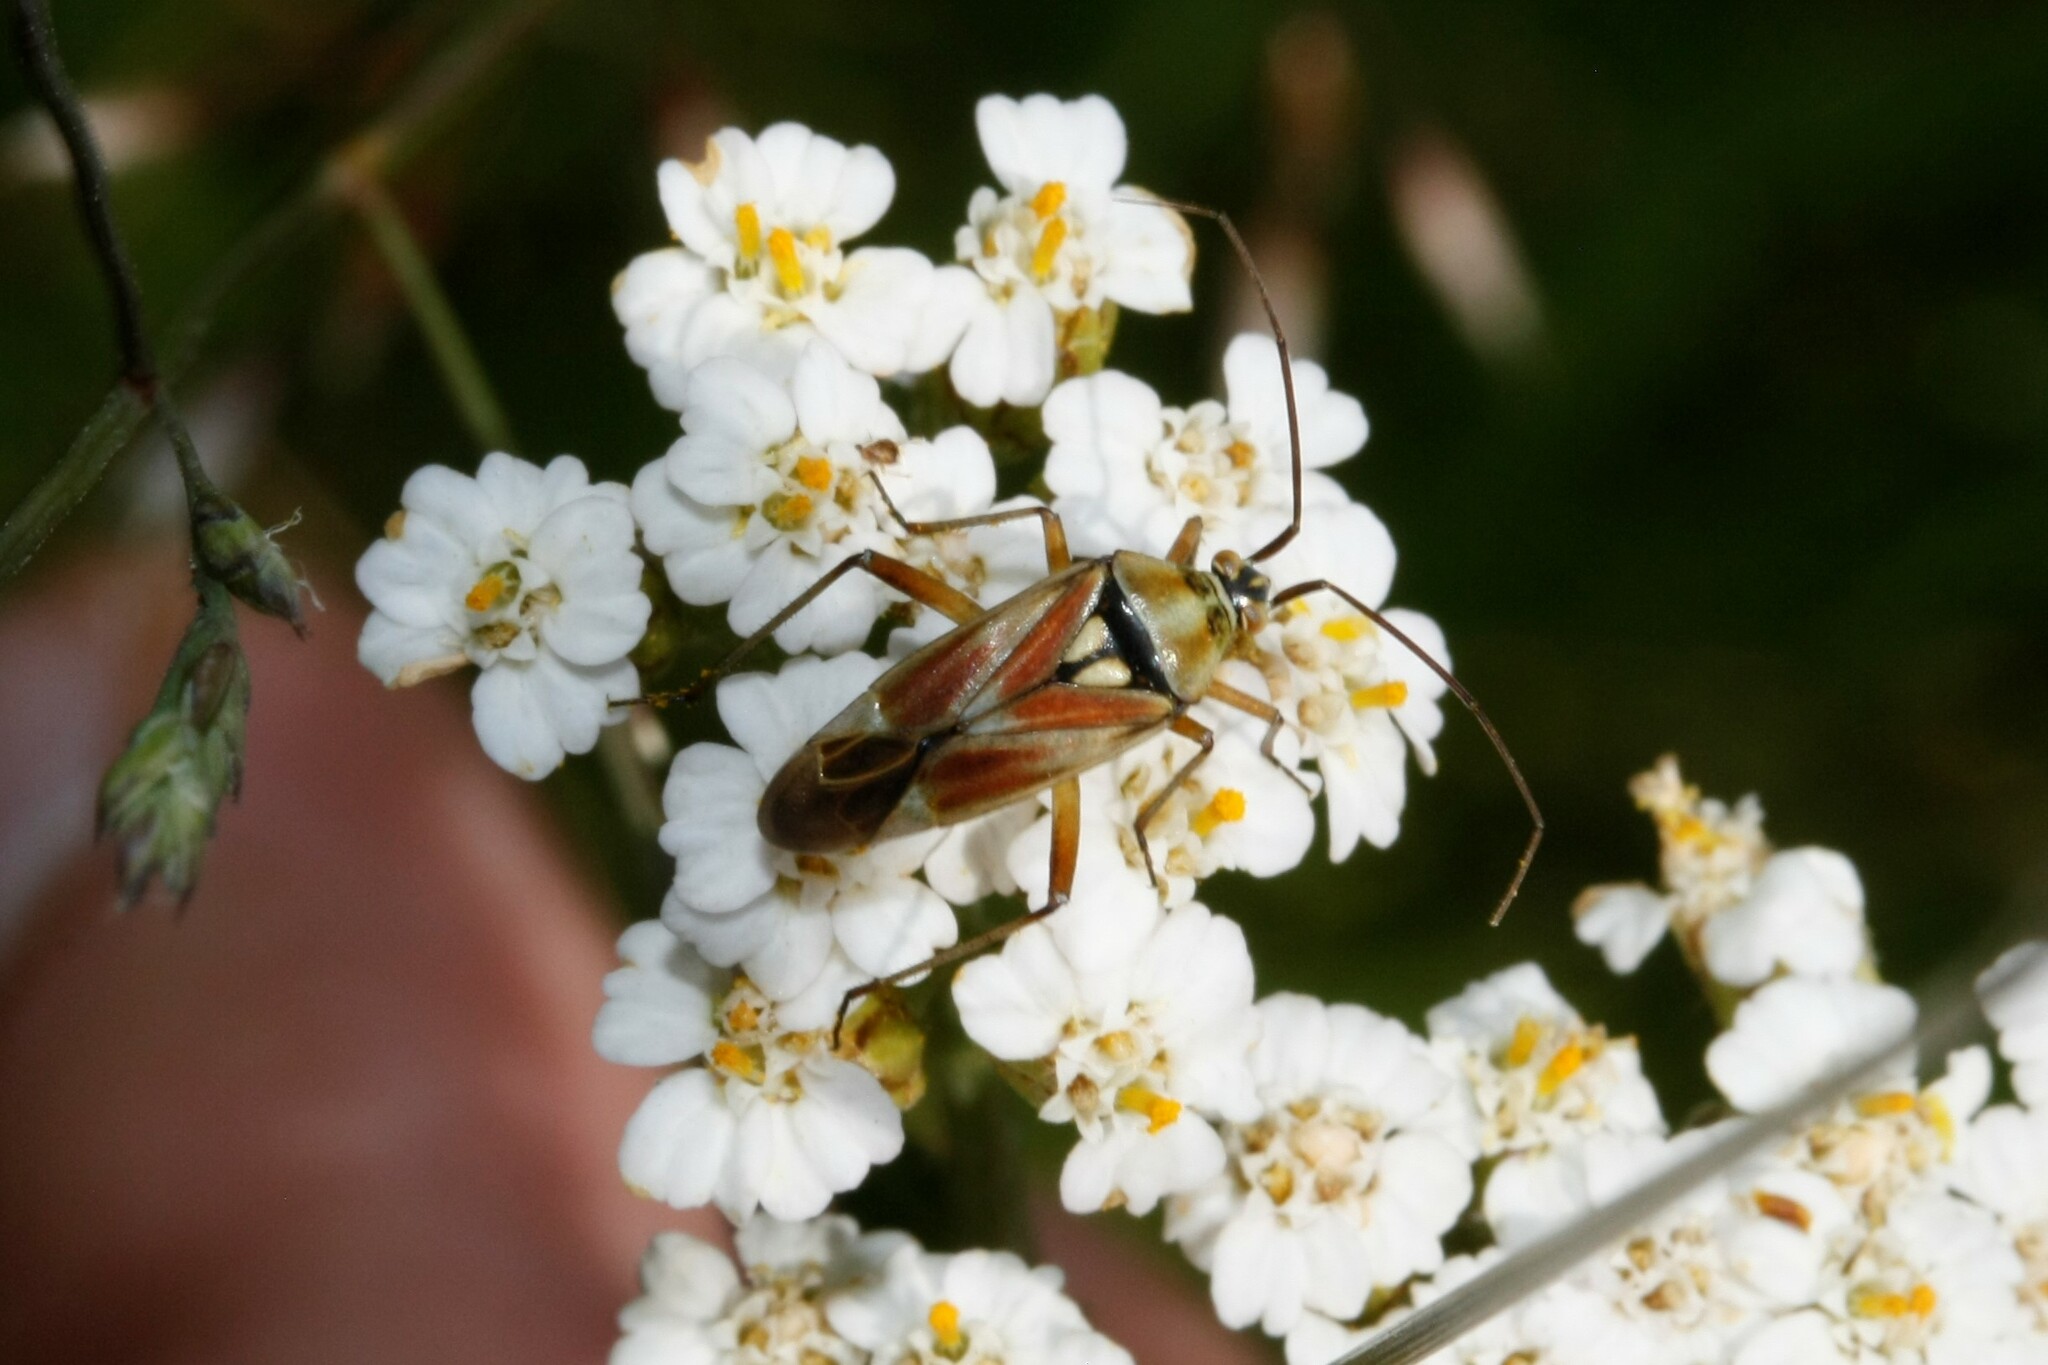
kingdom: Animalia
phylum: Arthropoda
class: Insecta
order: Hemiptera
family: Miridae
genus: Calocoris
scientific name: Calocoris roseomaculatus
